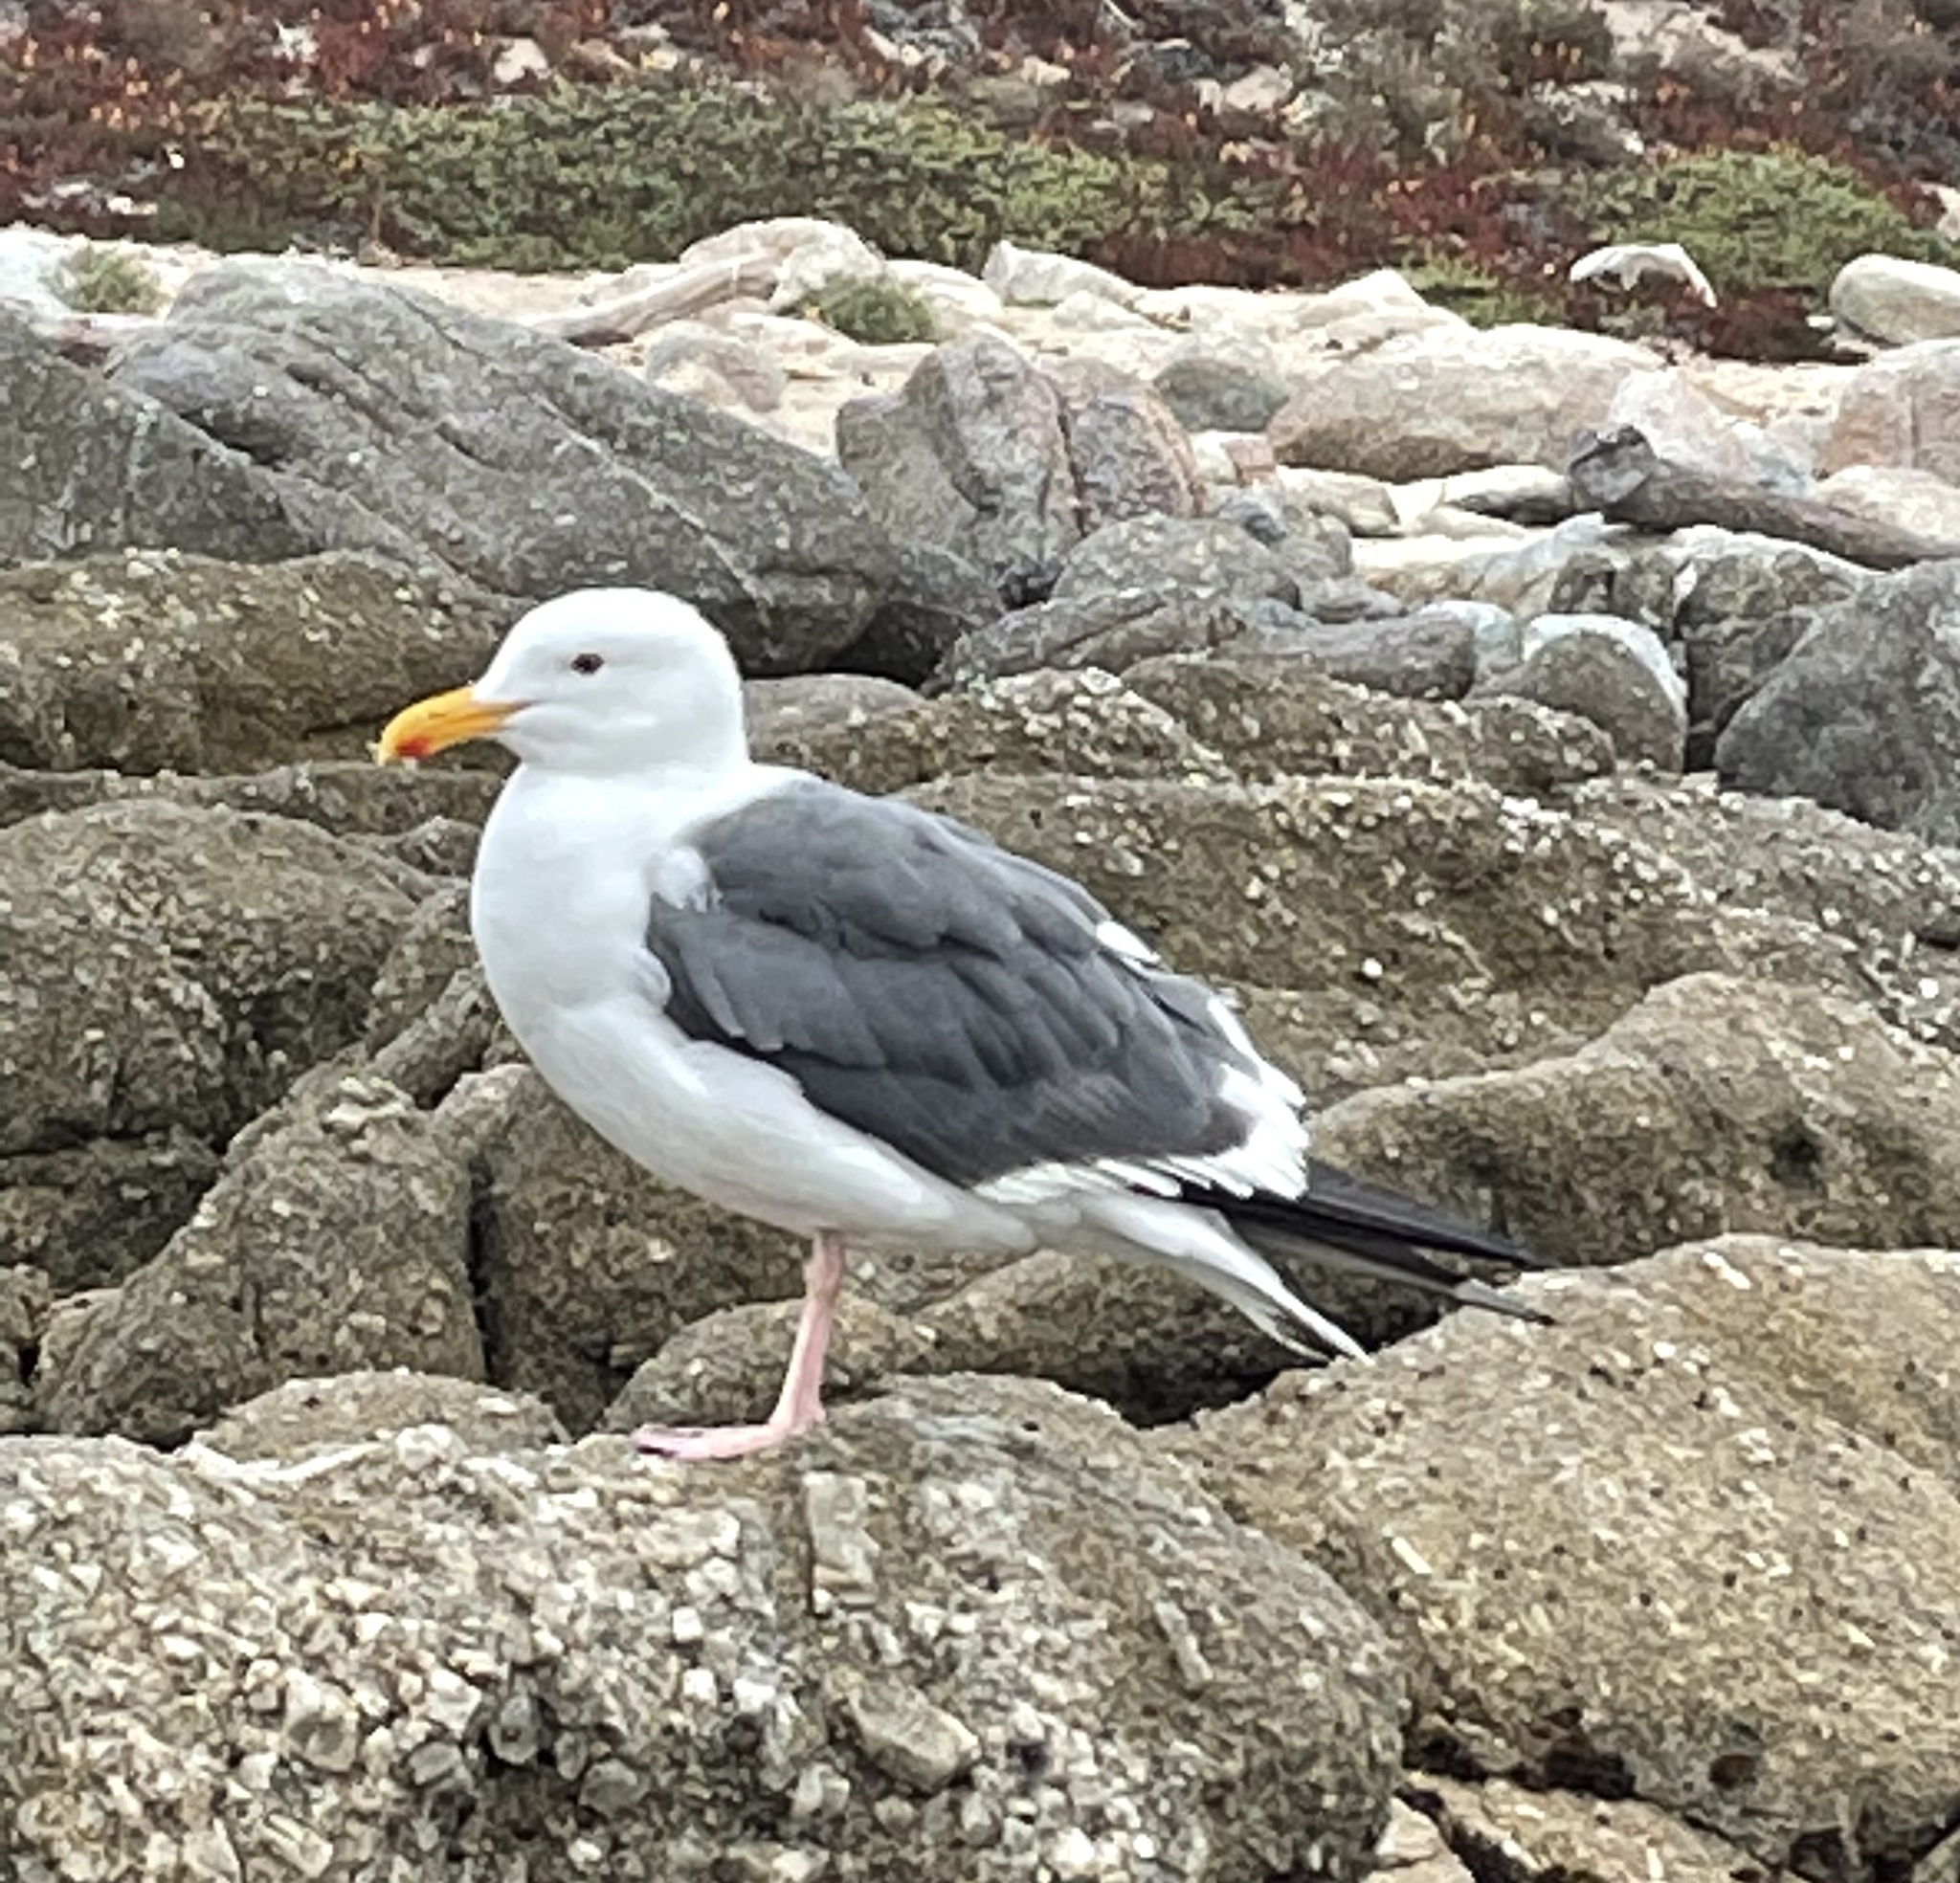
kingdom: Animalia
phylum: Chordata
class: Aves
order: Charadriiformes
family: Laridae
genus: Larus
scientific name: Larus occidentalis
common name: Western gull
